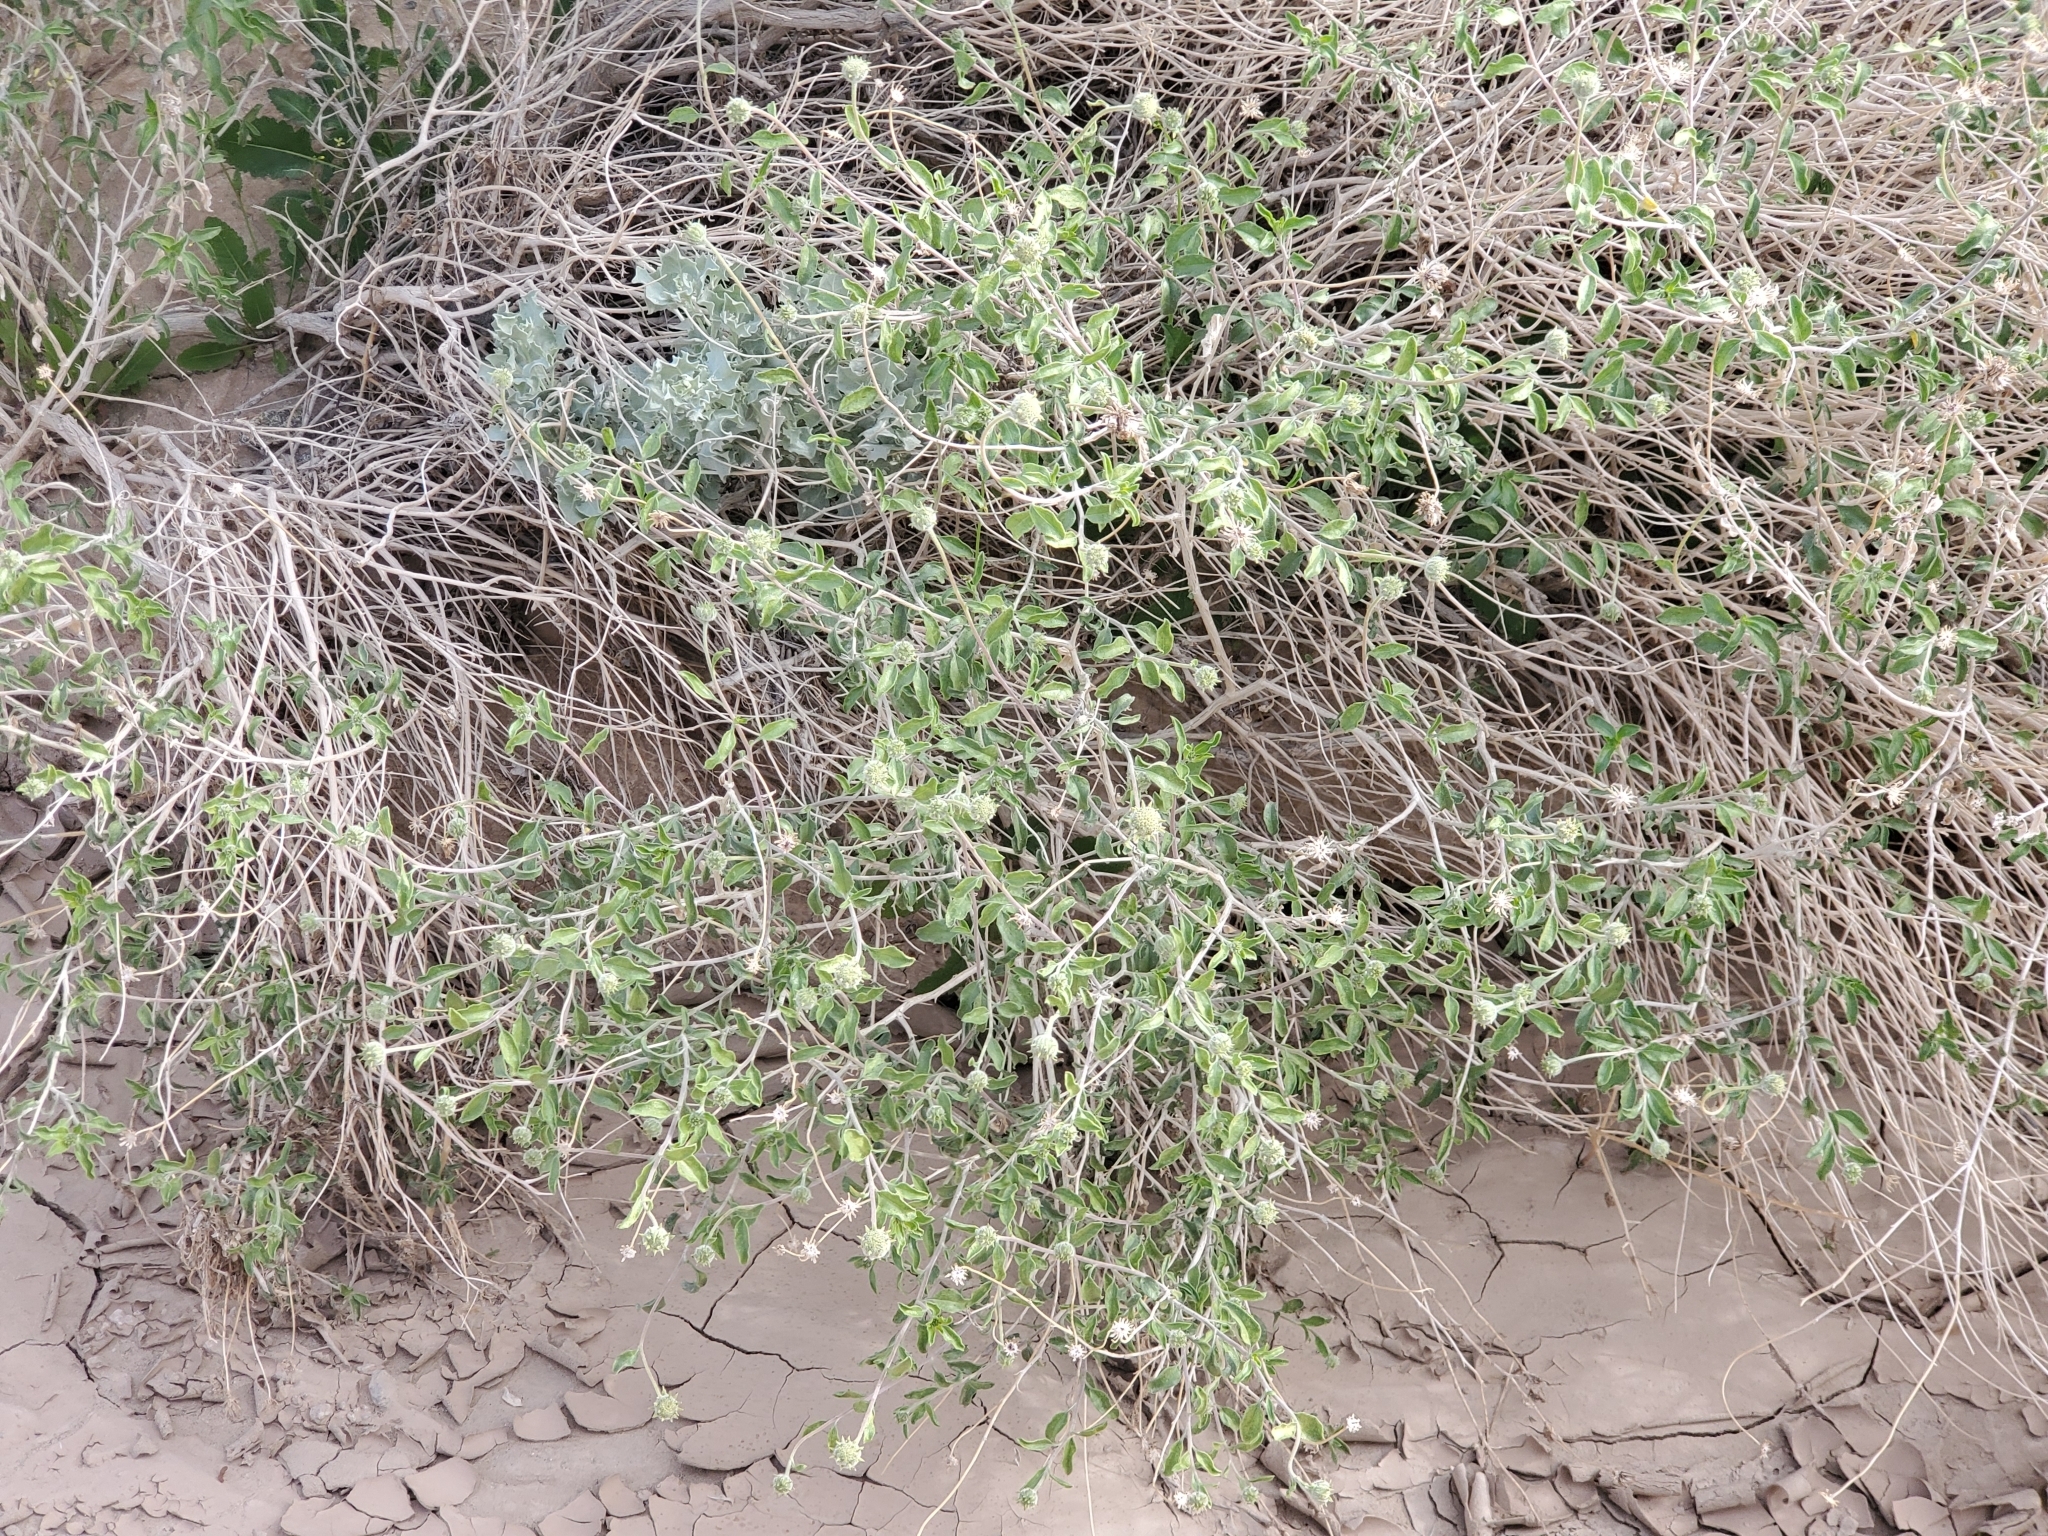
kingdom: Plantae
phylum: Tracheophyta
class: Magnoliopsida
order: Asterales
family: Asteraceae
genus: Encelia
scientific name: Encelia frutescens
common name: Bush encelia
